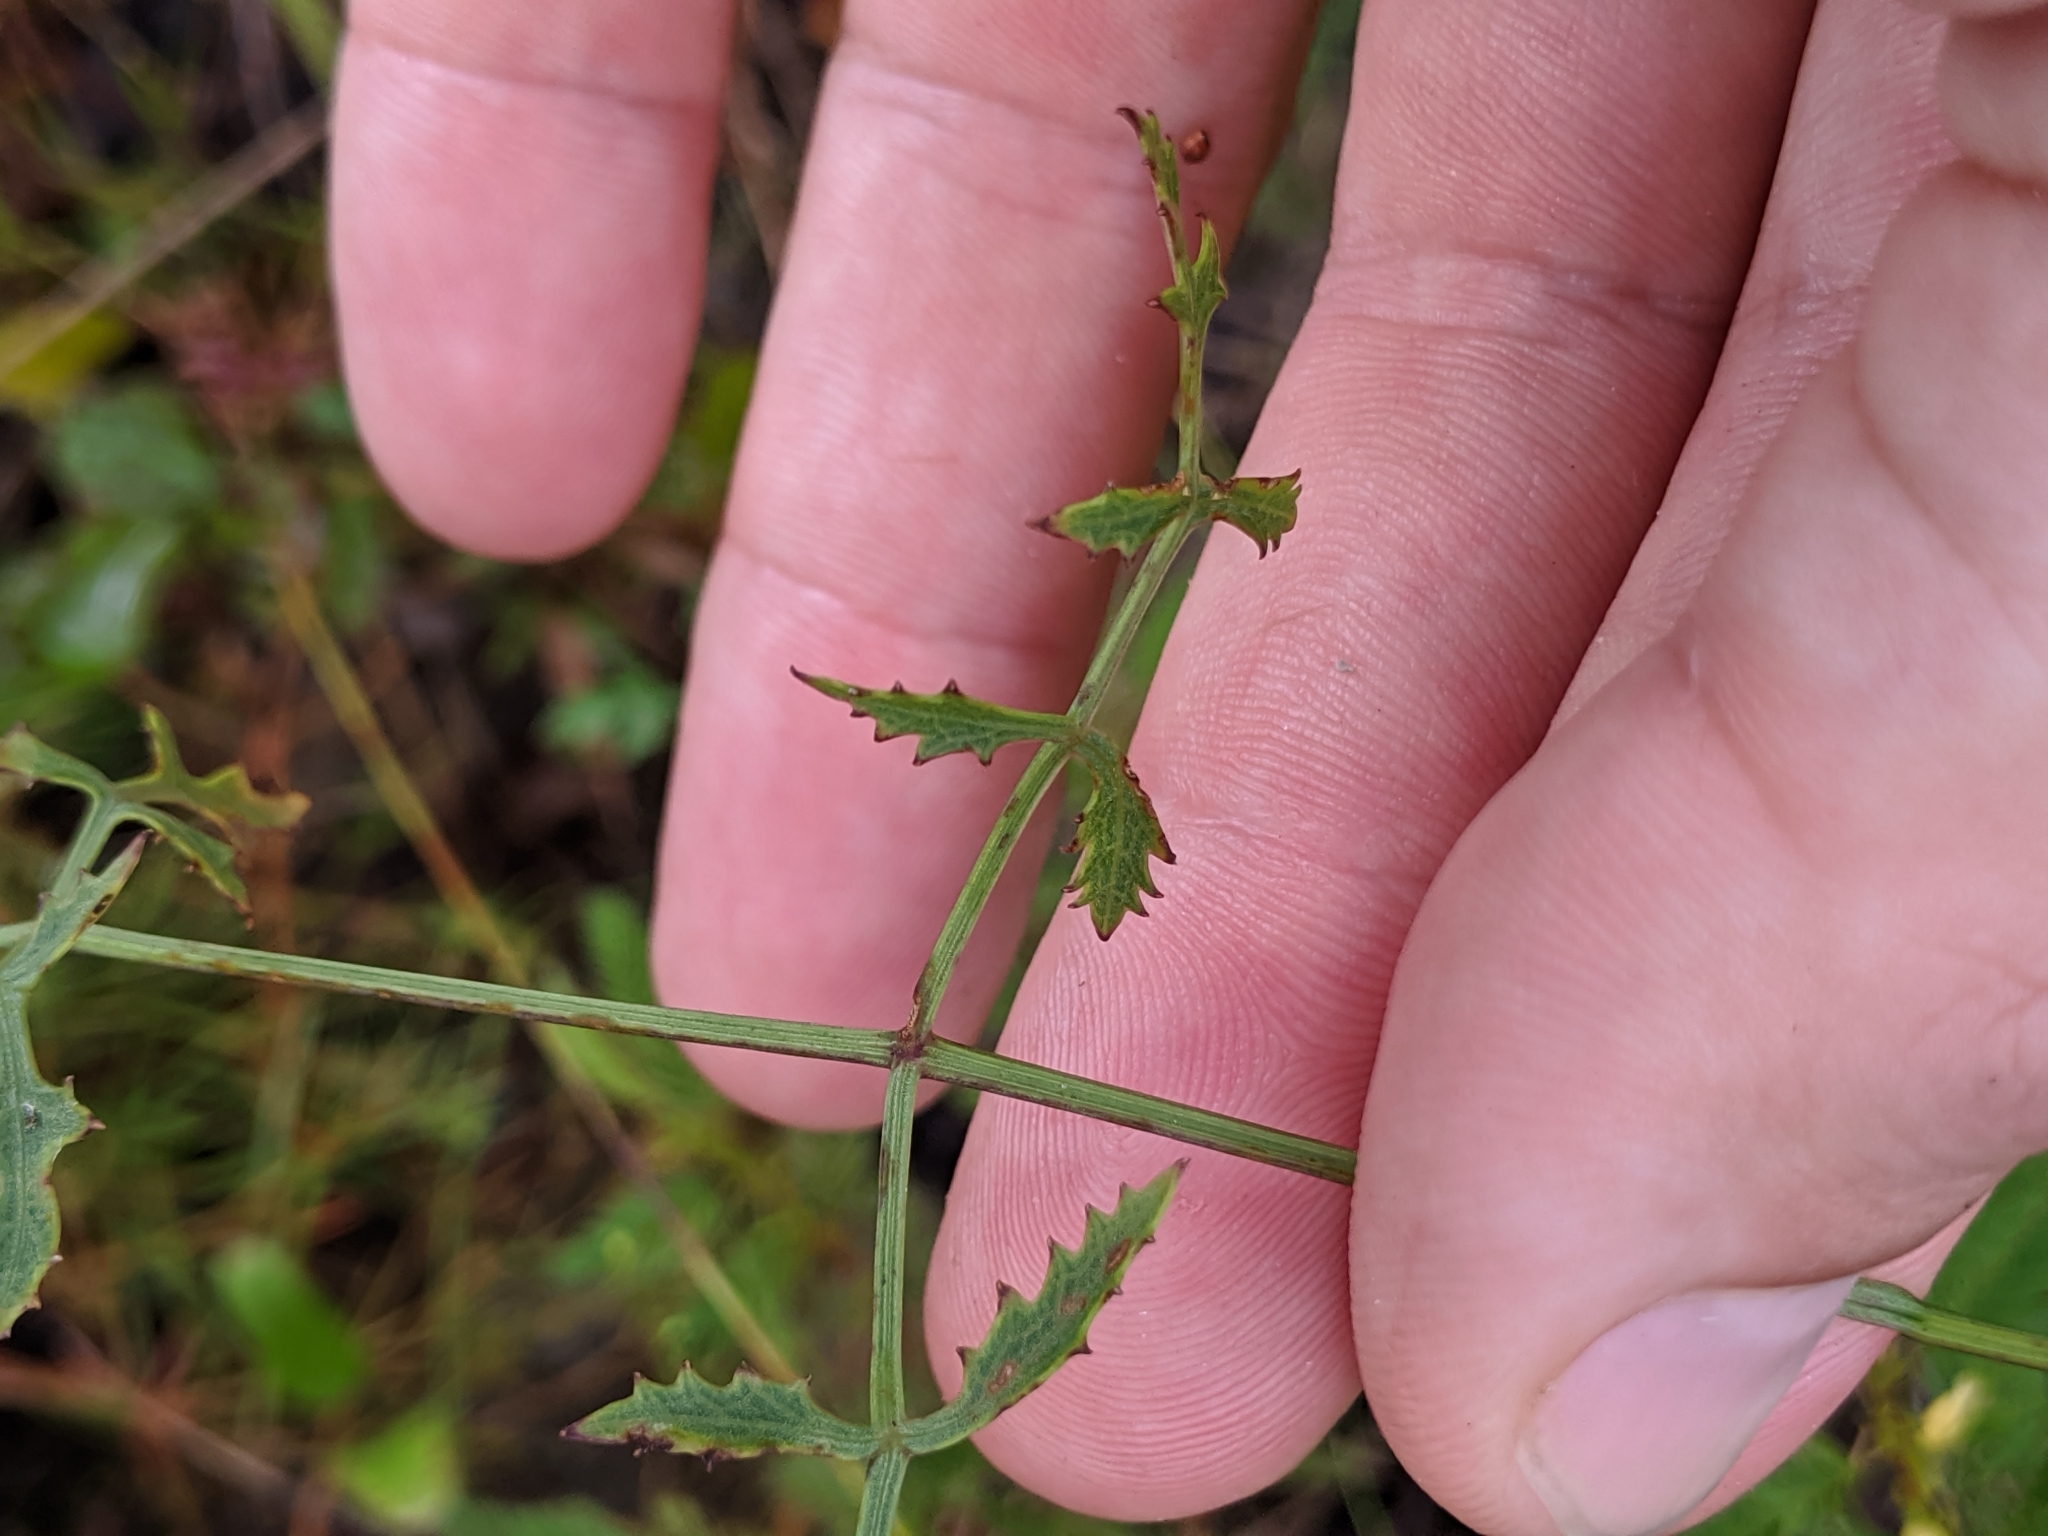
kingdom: Plantae
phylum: Tracheophyta
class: Magnoliopsida
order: Apiales
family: Apiaceae
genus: Angelica
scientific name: Angelica venenosa
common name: Hairy angelica
